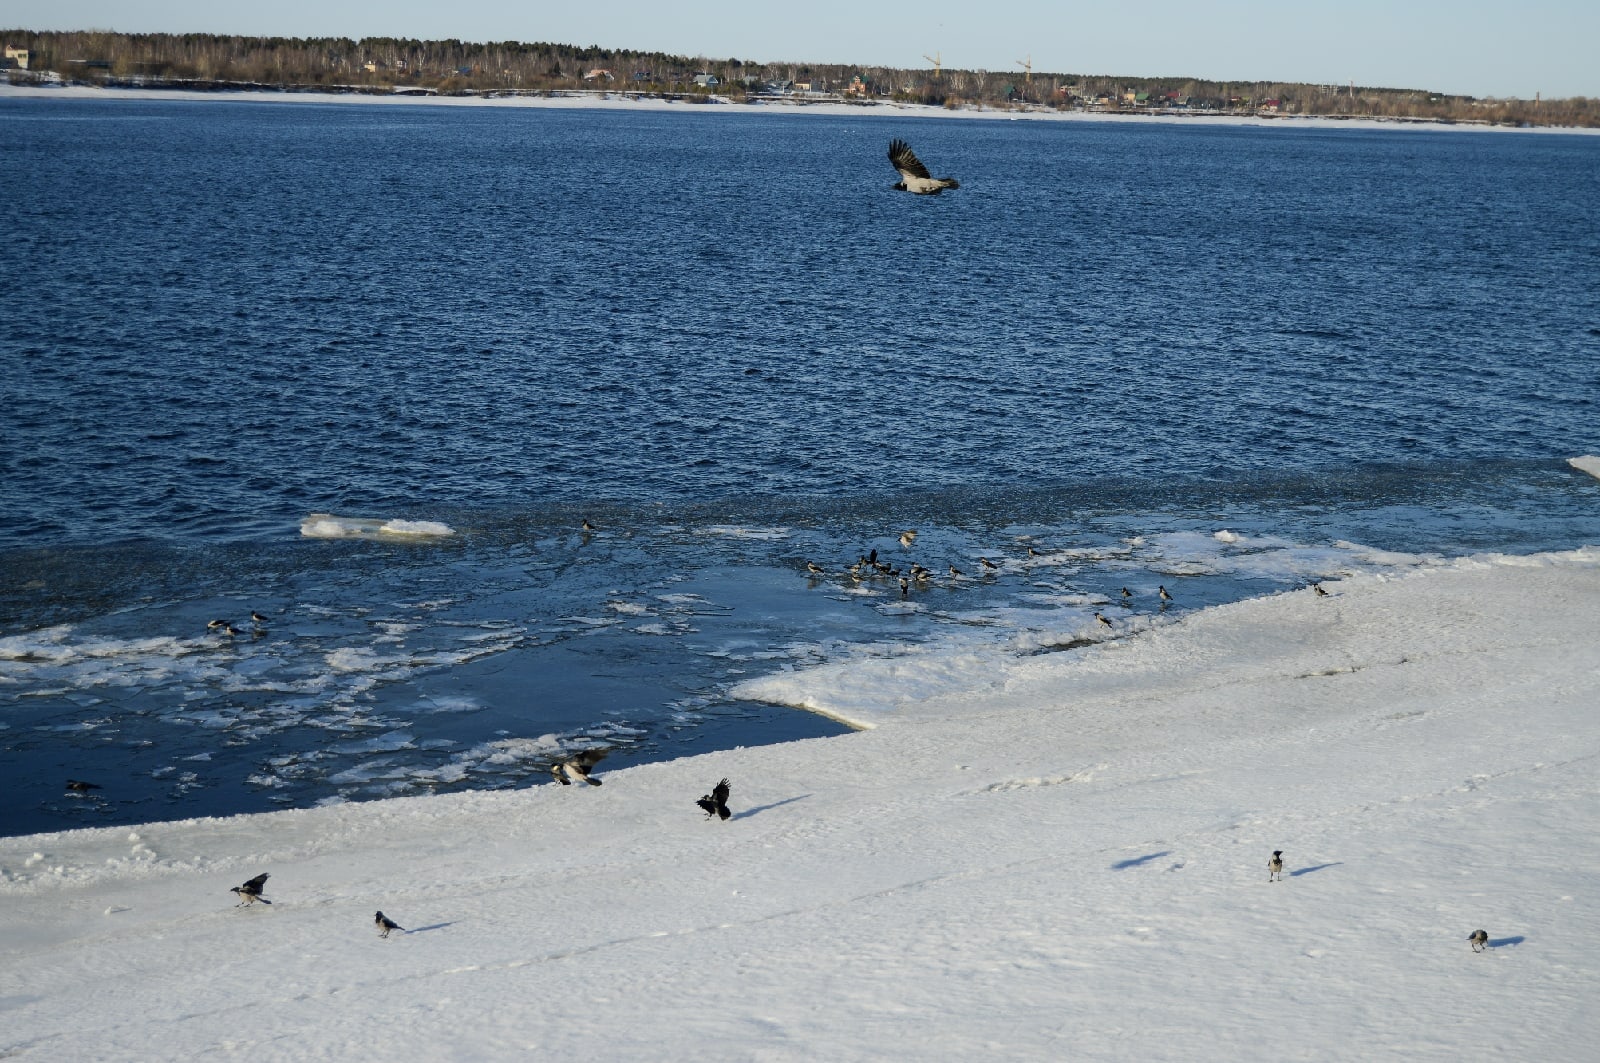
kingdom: Animalia
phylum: Chordata
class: Aves
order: Passeriformes
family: Corvidae
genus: Corvus
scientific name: Corvus cornix
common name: Hooded crow
